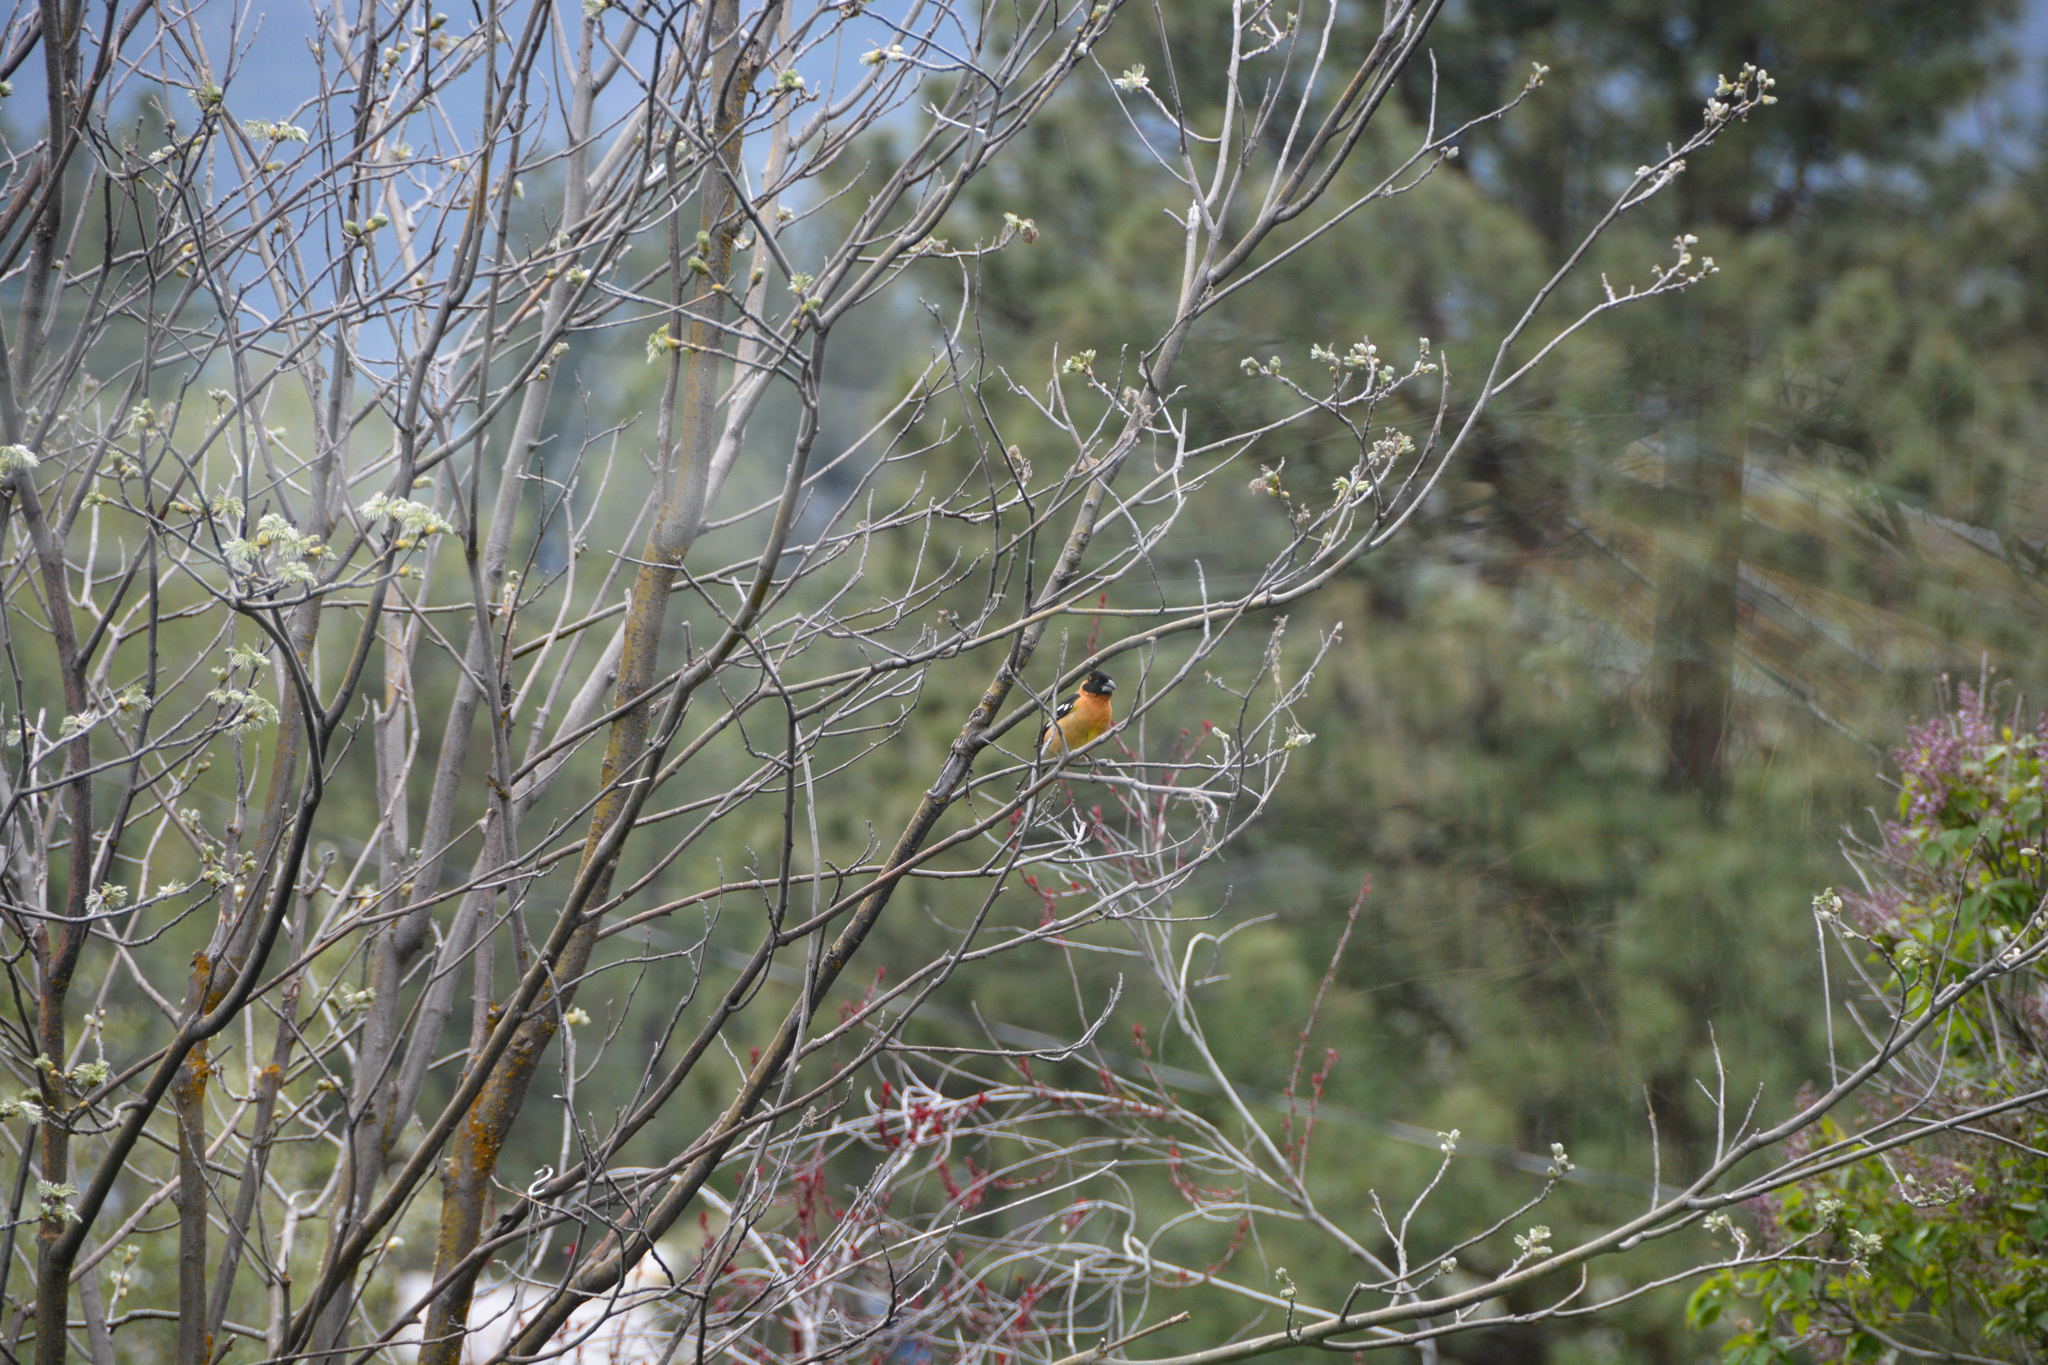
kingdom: Animalia
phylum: Chordata
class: Aves
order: Passeriformes
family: Cardinalidae
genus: Pheucticus
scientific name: Pheucticus melanocephalus
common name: Black-headed grosbeak
